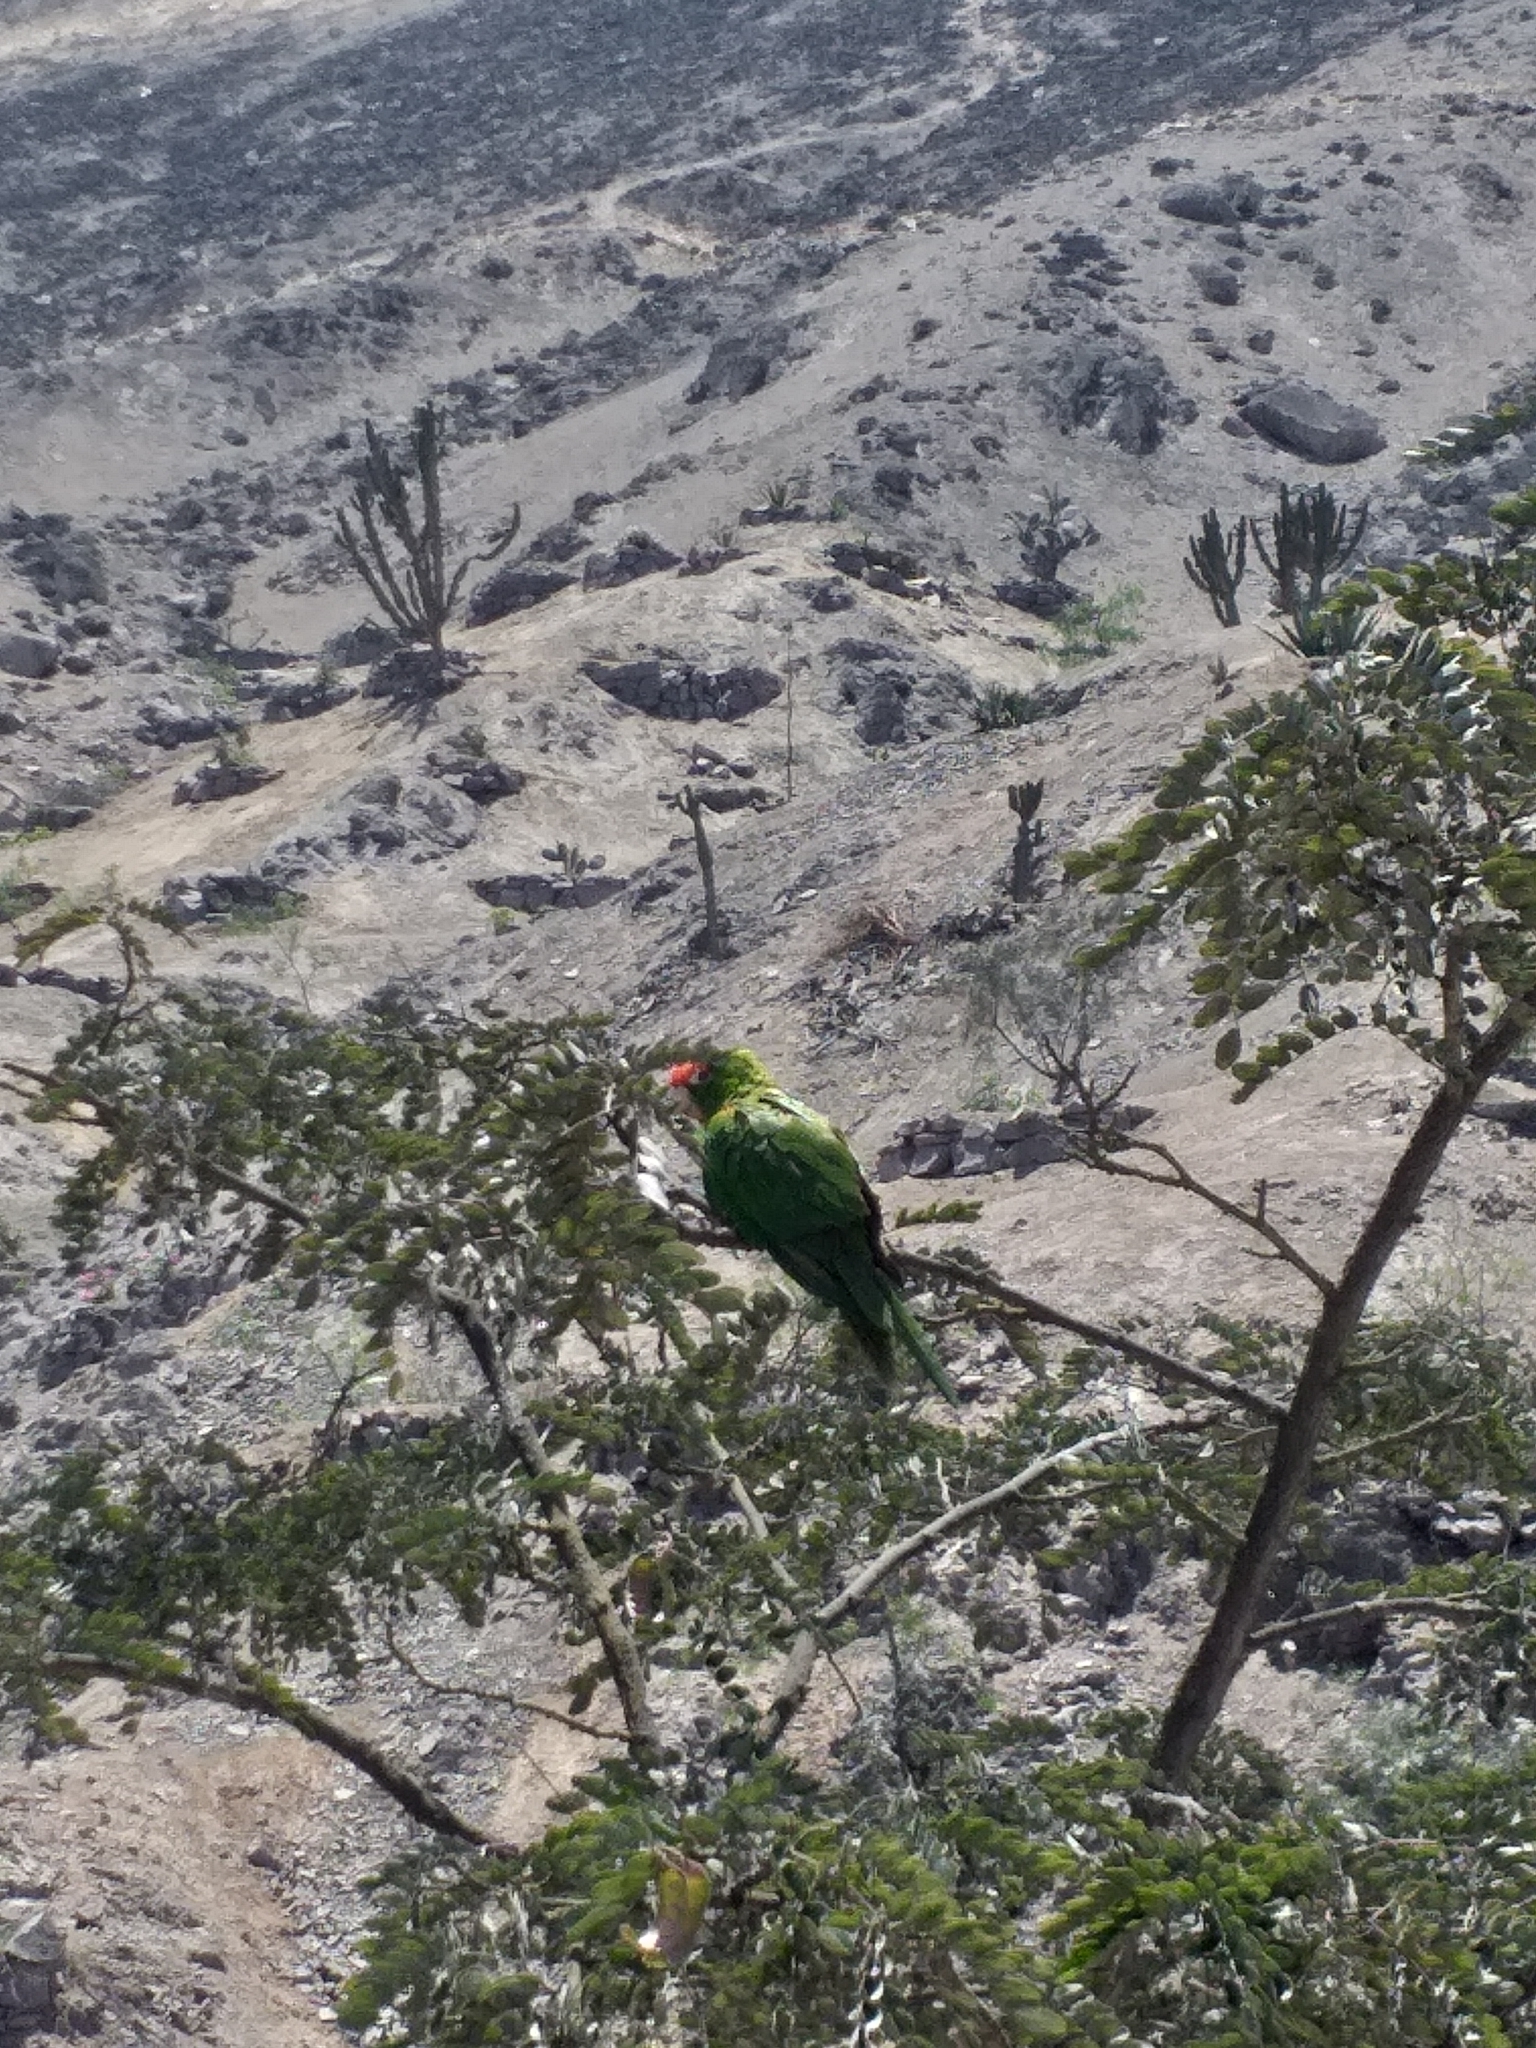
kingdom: Animalia
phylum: Chordata
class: Aves
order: Psittaciformes
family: Psittacidae
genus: Aratinga
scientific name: Aratinga wagleri
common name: Scarlet-fronted parakeet
